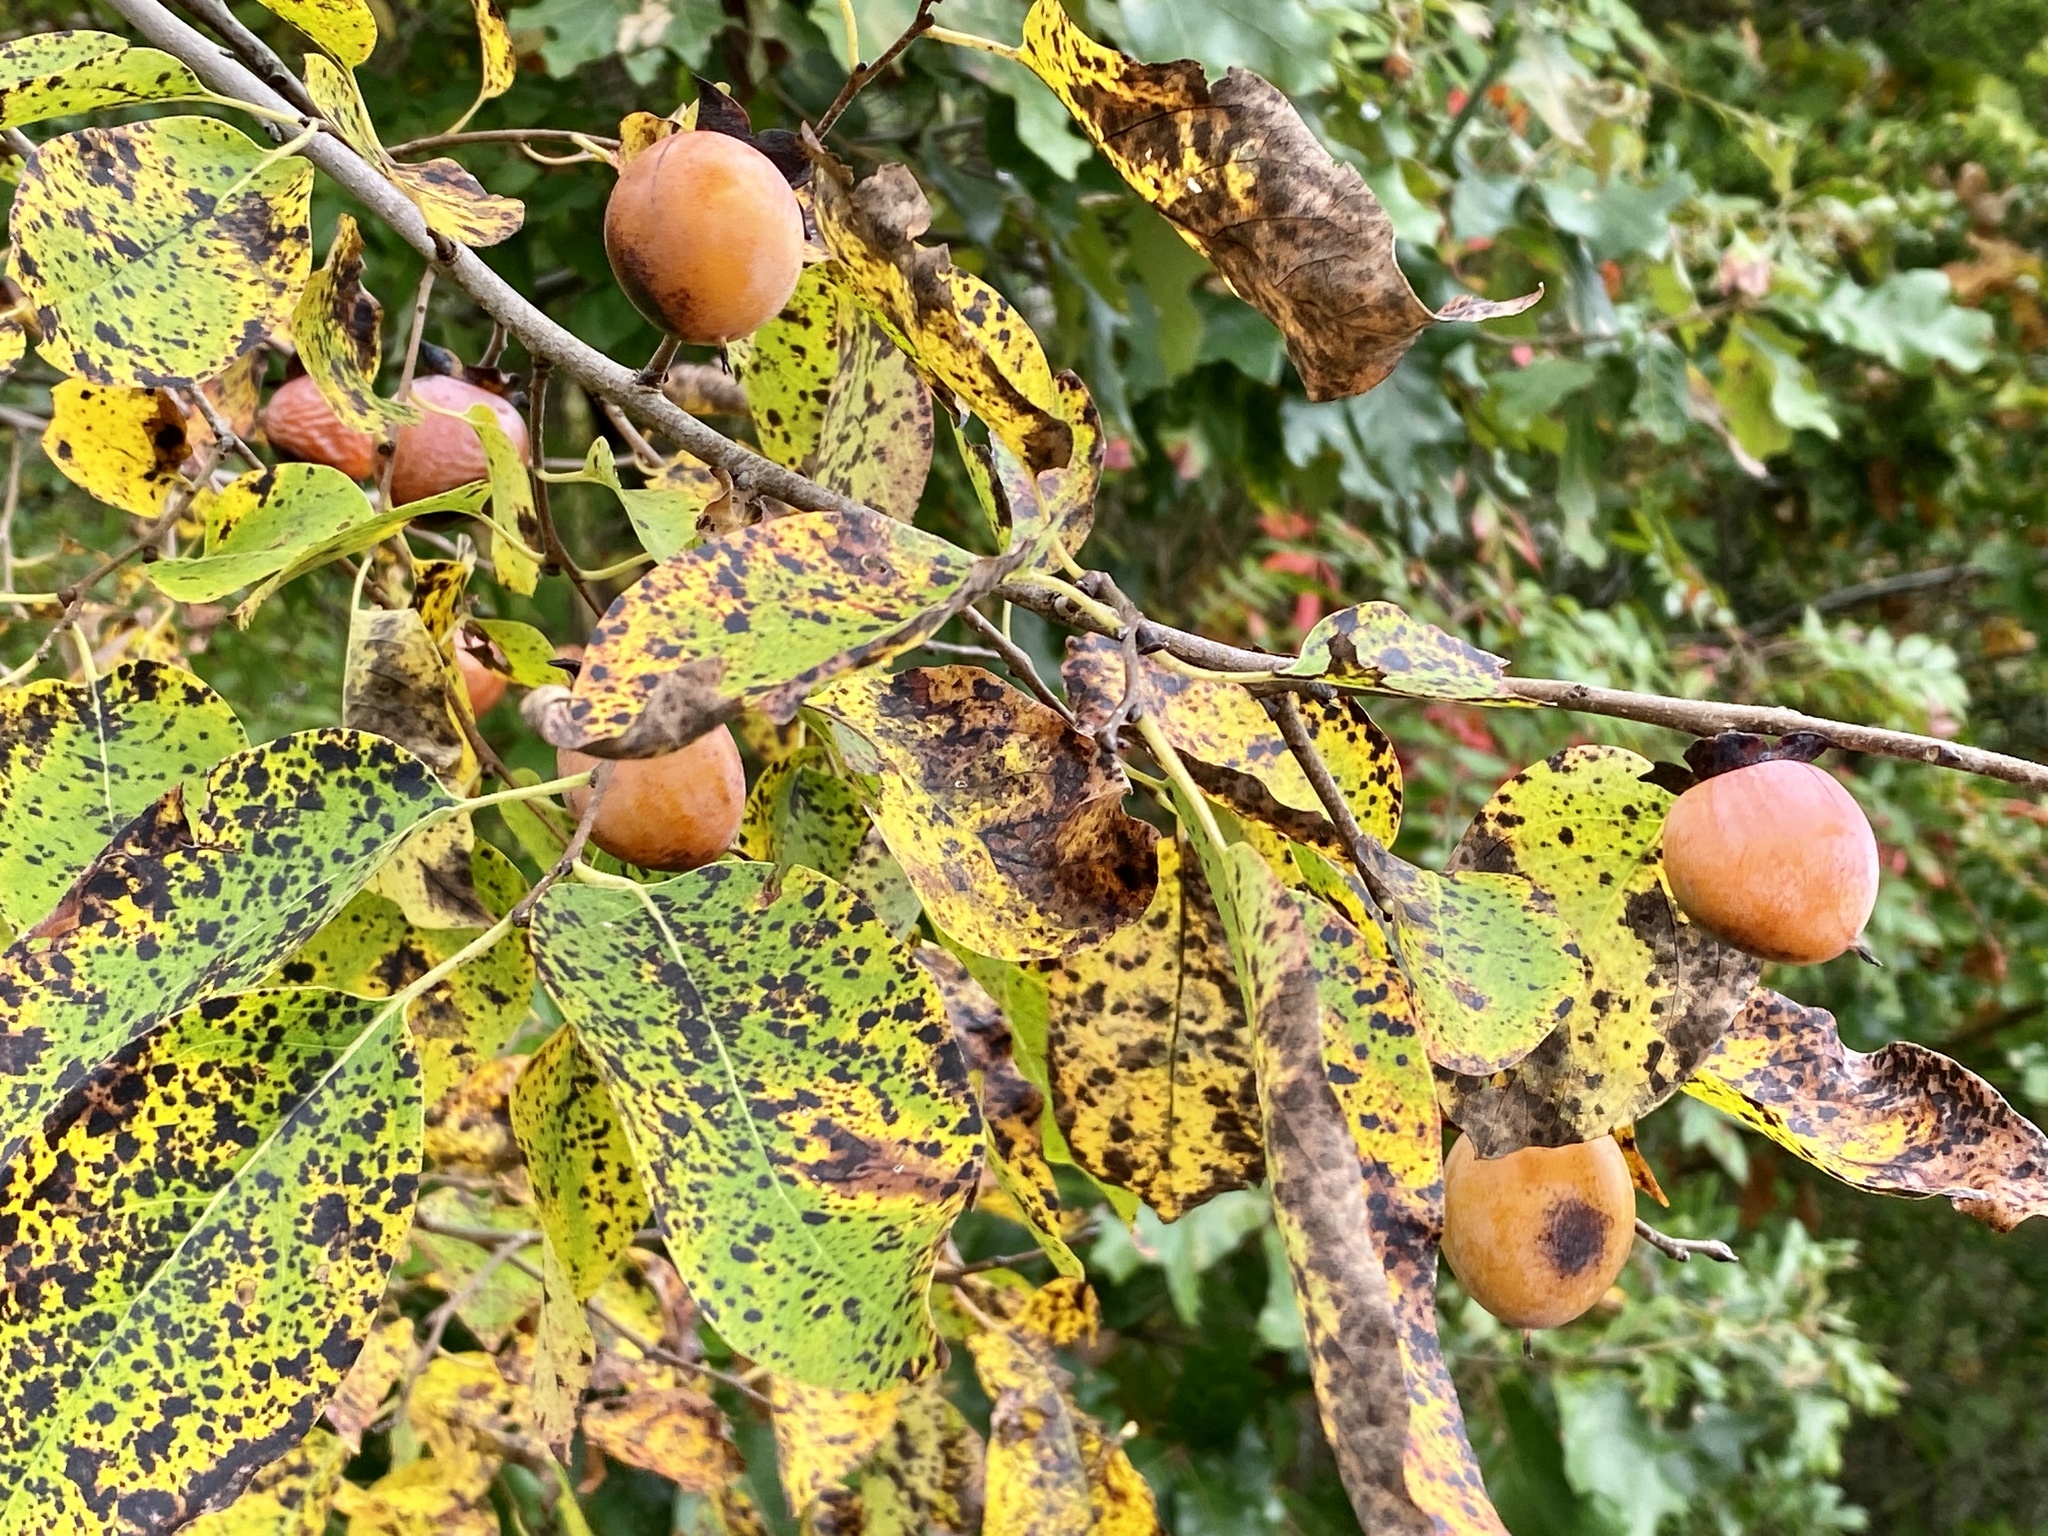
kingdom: Plantae
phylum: Tracheophyta
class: Magnoliopsida
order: Ericales
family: Ebenaceae
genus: Diospyros
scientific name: Diospyros virginiana
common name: Persimmon
